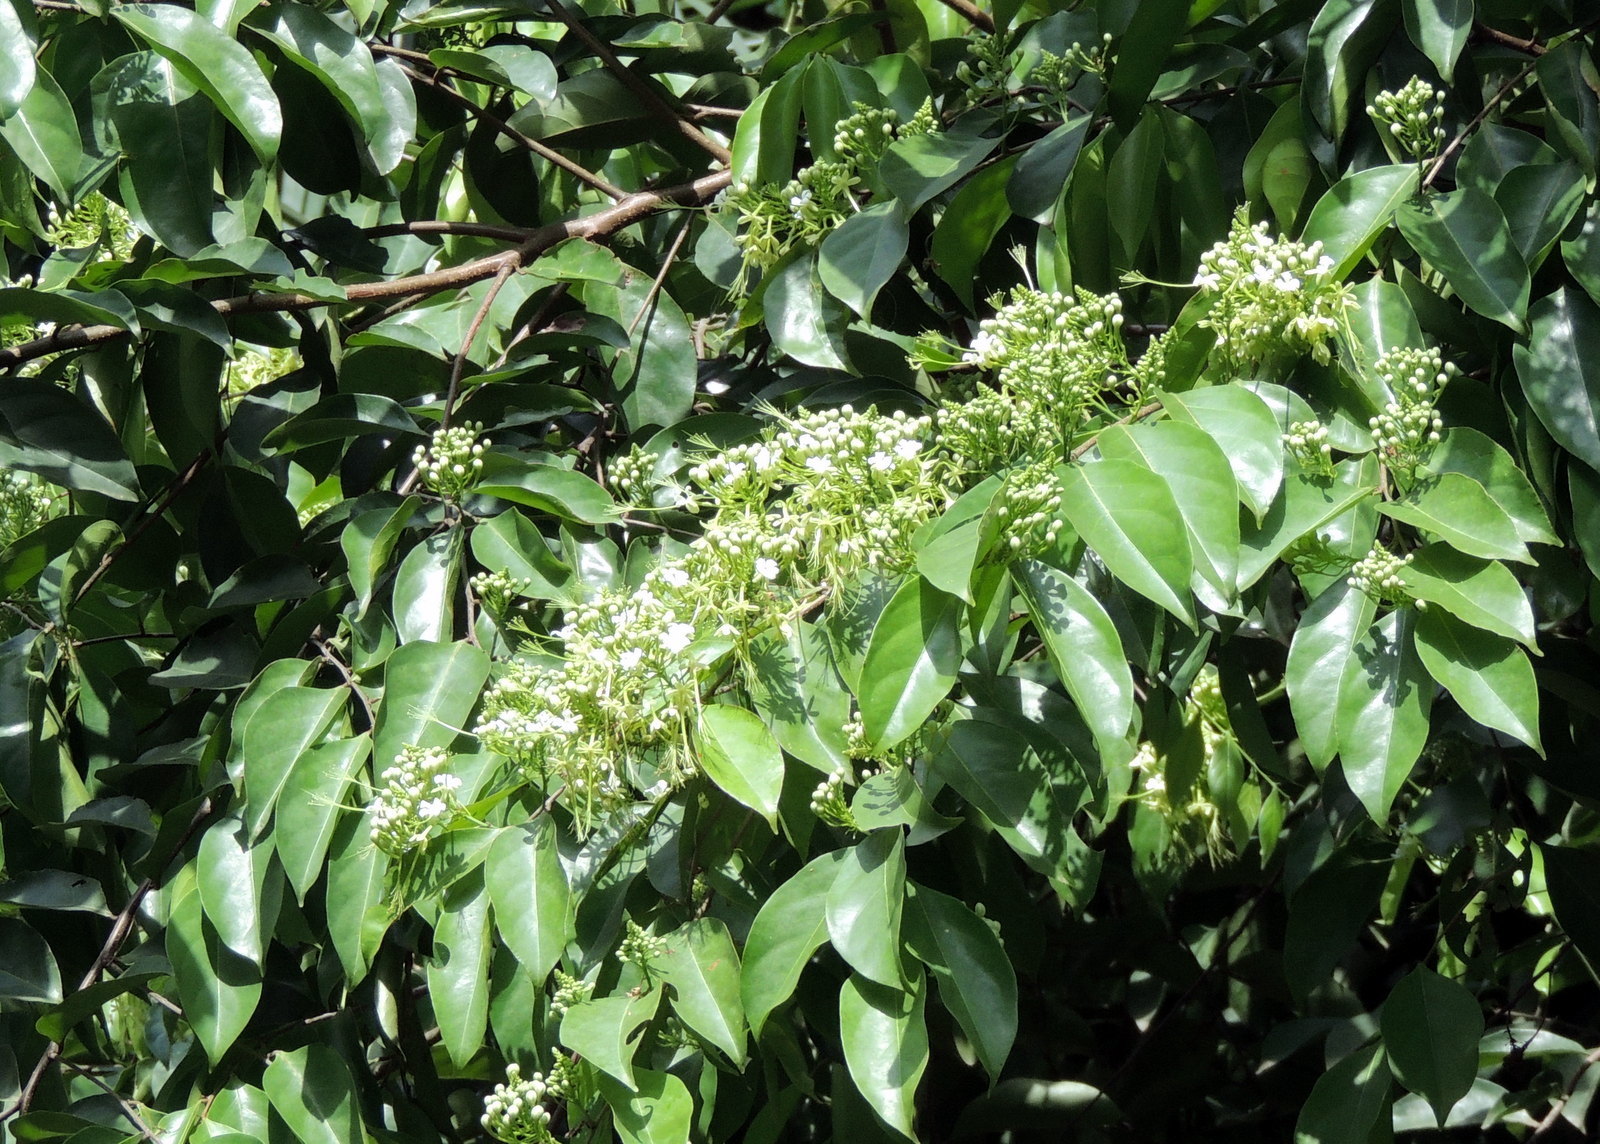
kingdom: Plantae
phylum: Tracheophyta
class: Magnoliopsida
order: Malpighiales
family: Chrysobalanaceae
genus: Dactyladenia
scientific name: Dactyladenia barteri
